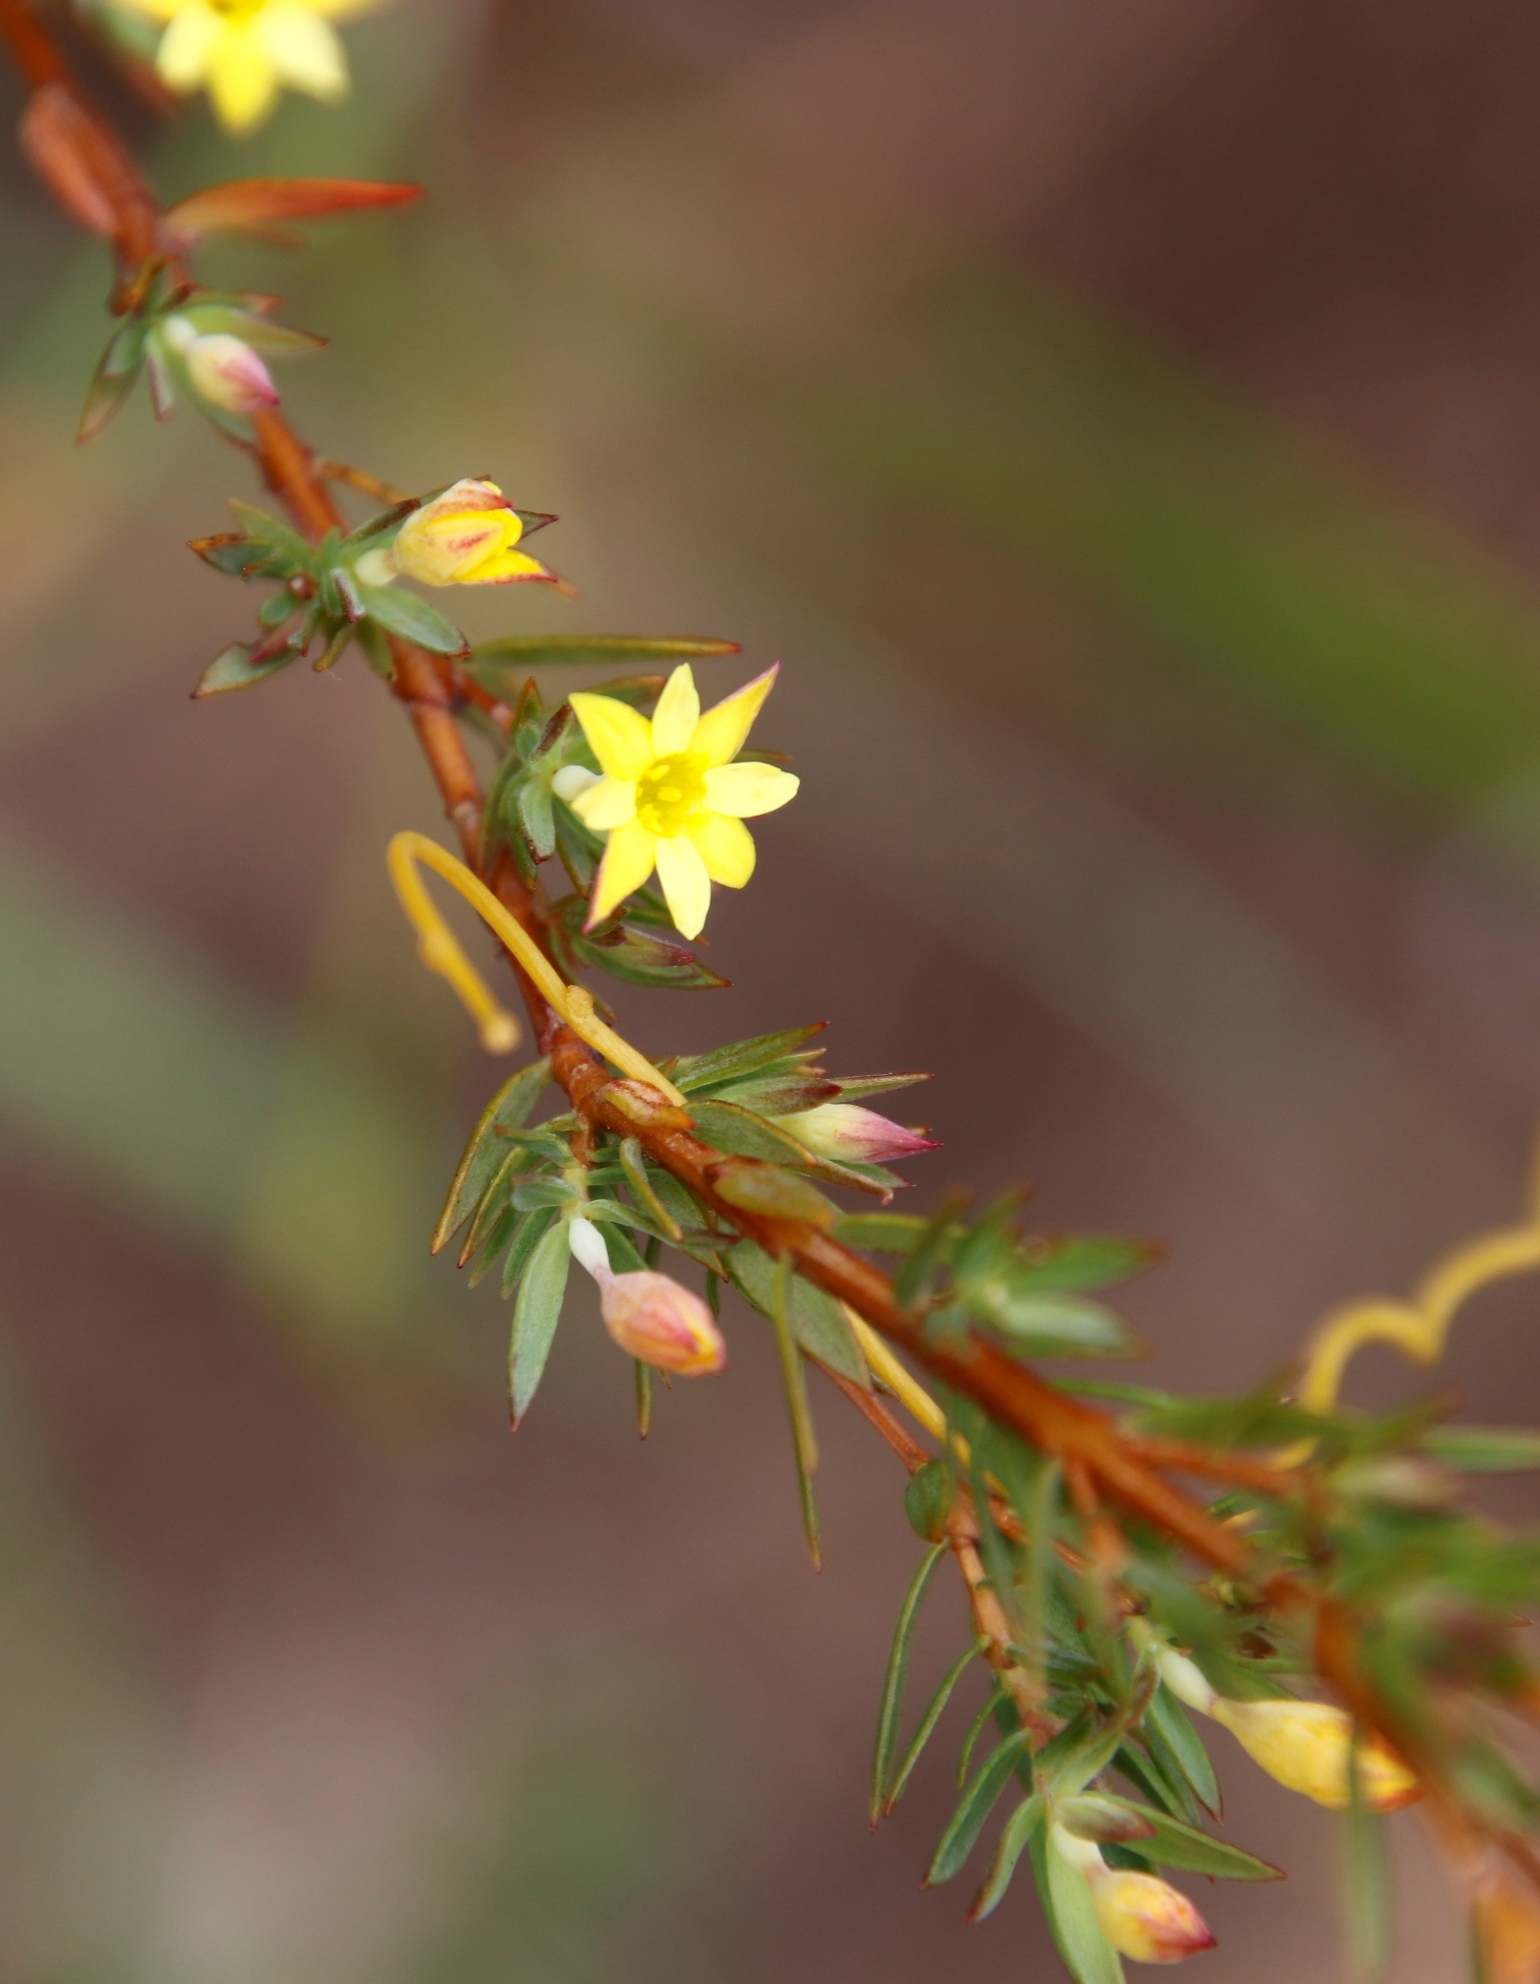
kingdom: Plantae
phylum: Tracheophyta
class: Magnoliopsida
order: Malvales
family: Thymelaeaceae
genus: Gnidia
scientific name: Gnidia juniperifolia
